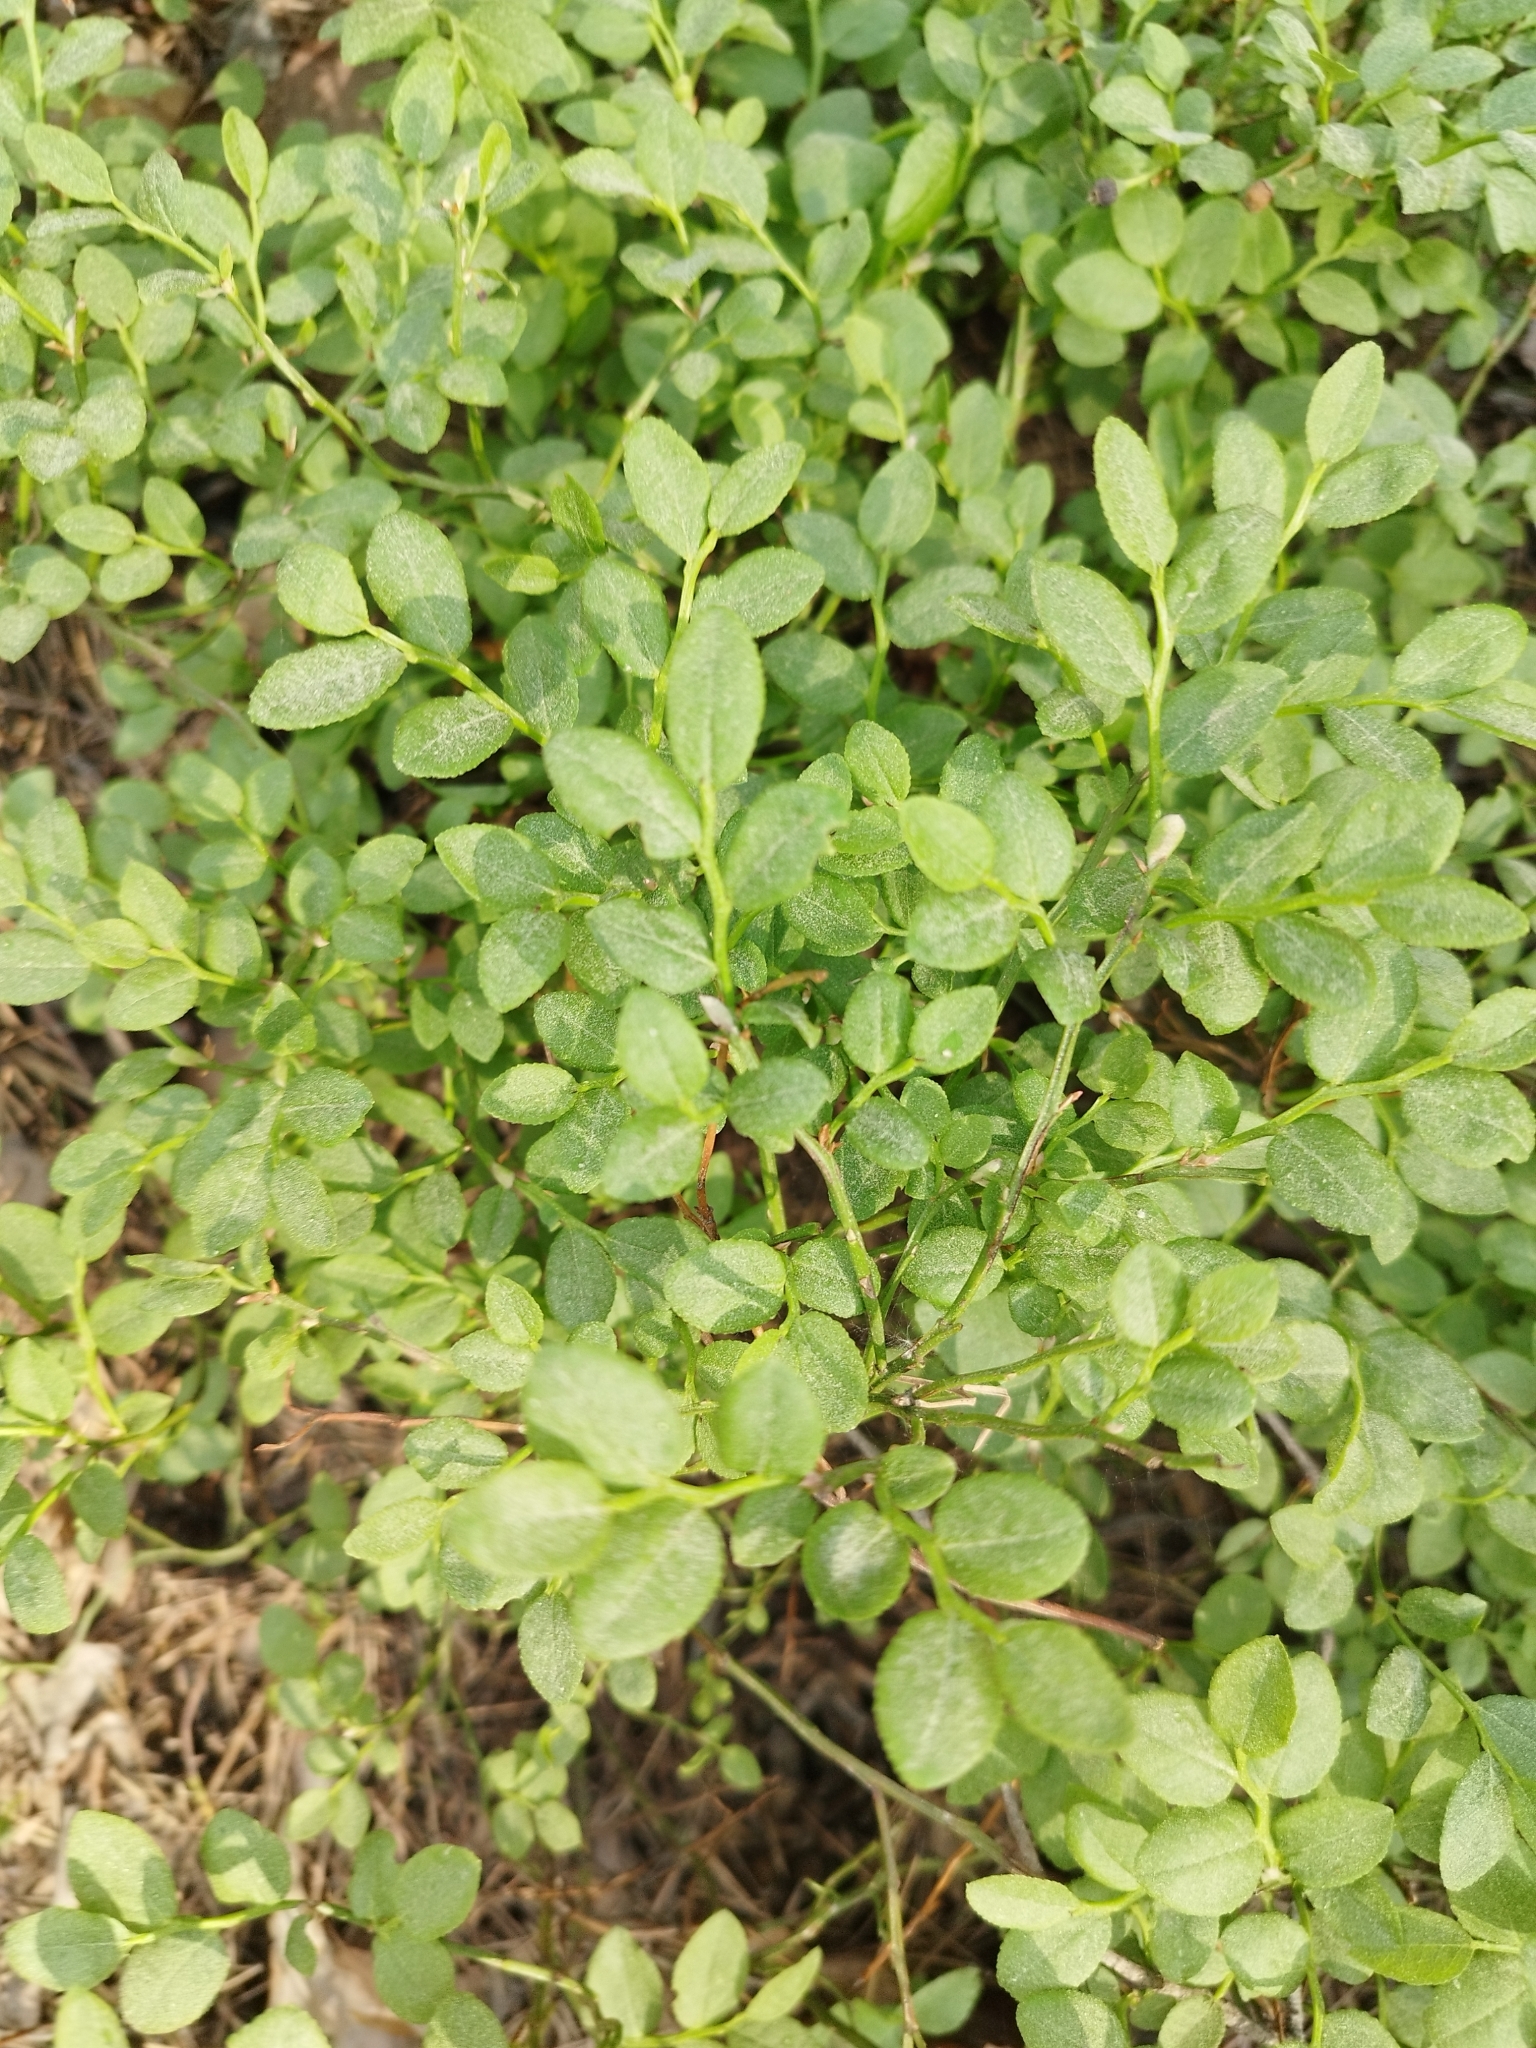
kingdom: Plantae
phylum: Tracheophyta
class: Magnoliopsida
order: Ericales
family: Ericaceae
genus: Vaccinium
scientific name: Vaccinium myrtillus
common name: Bilberry
